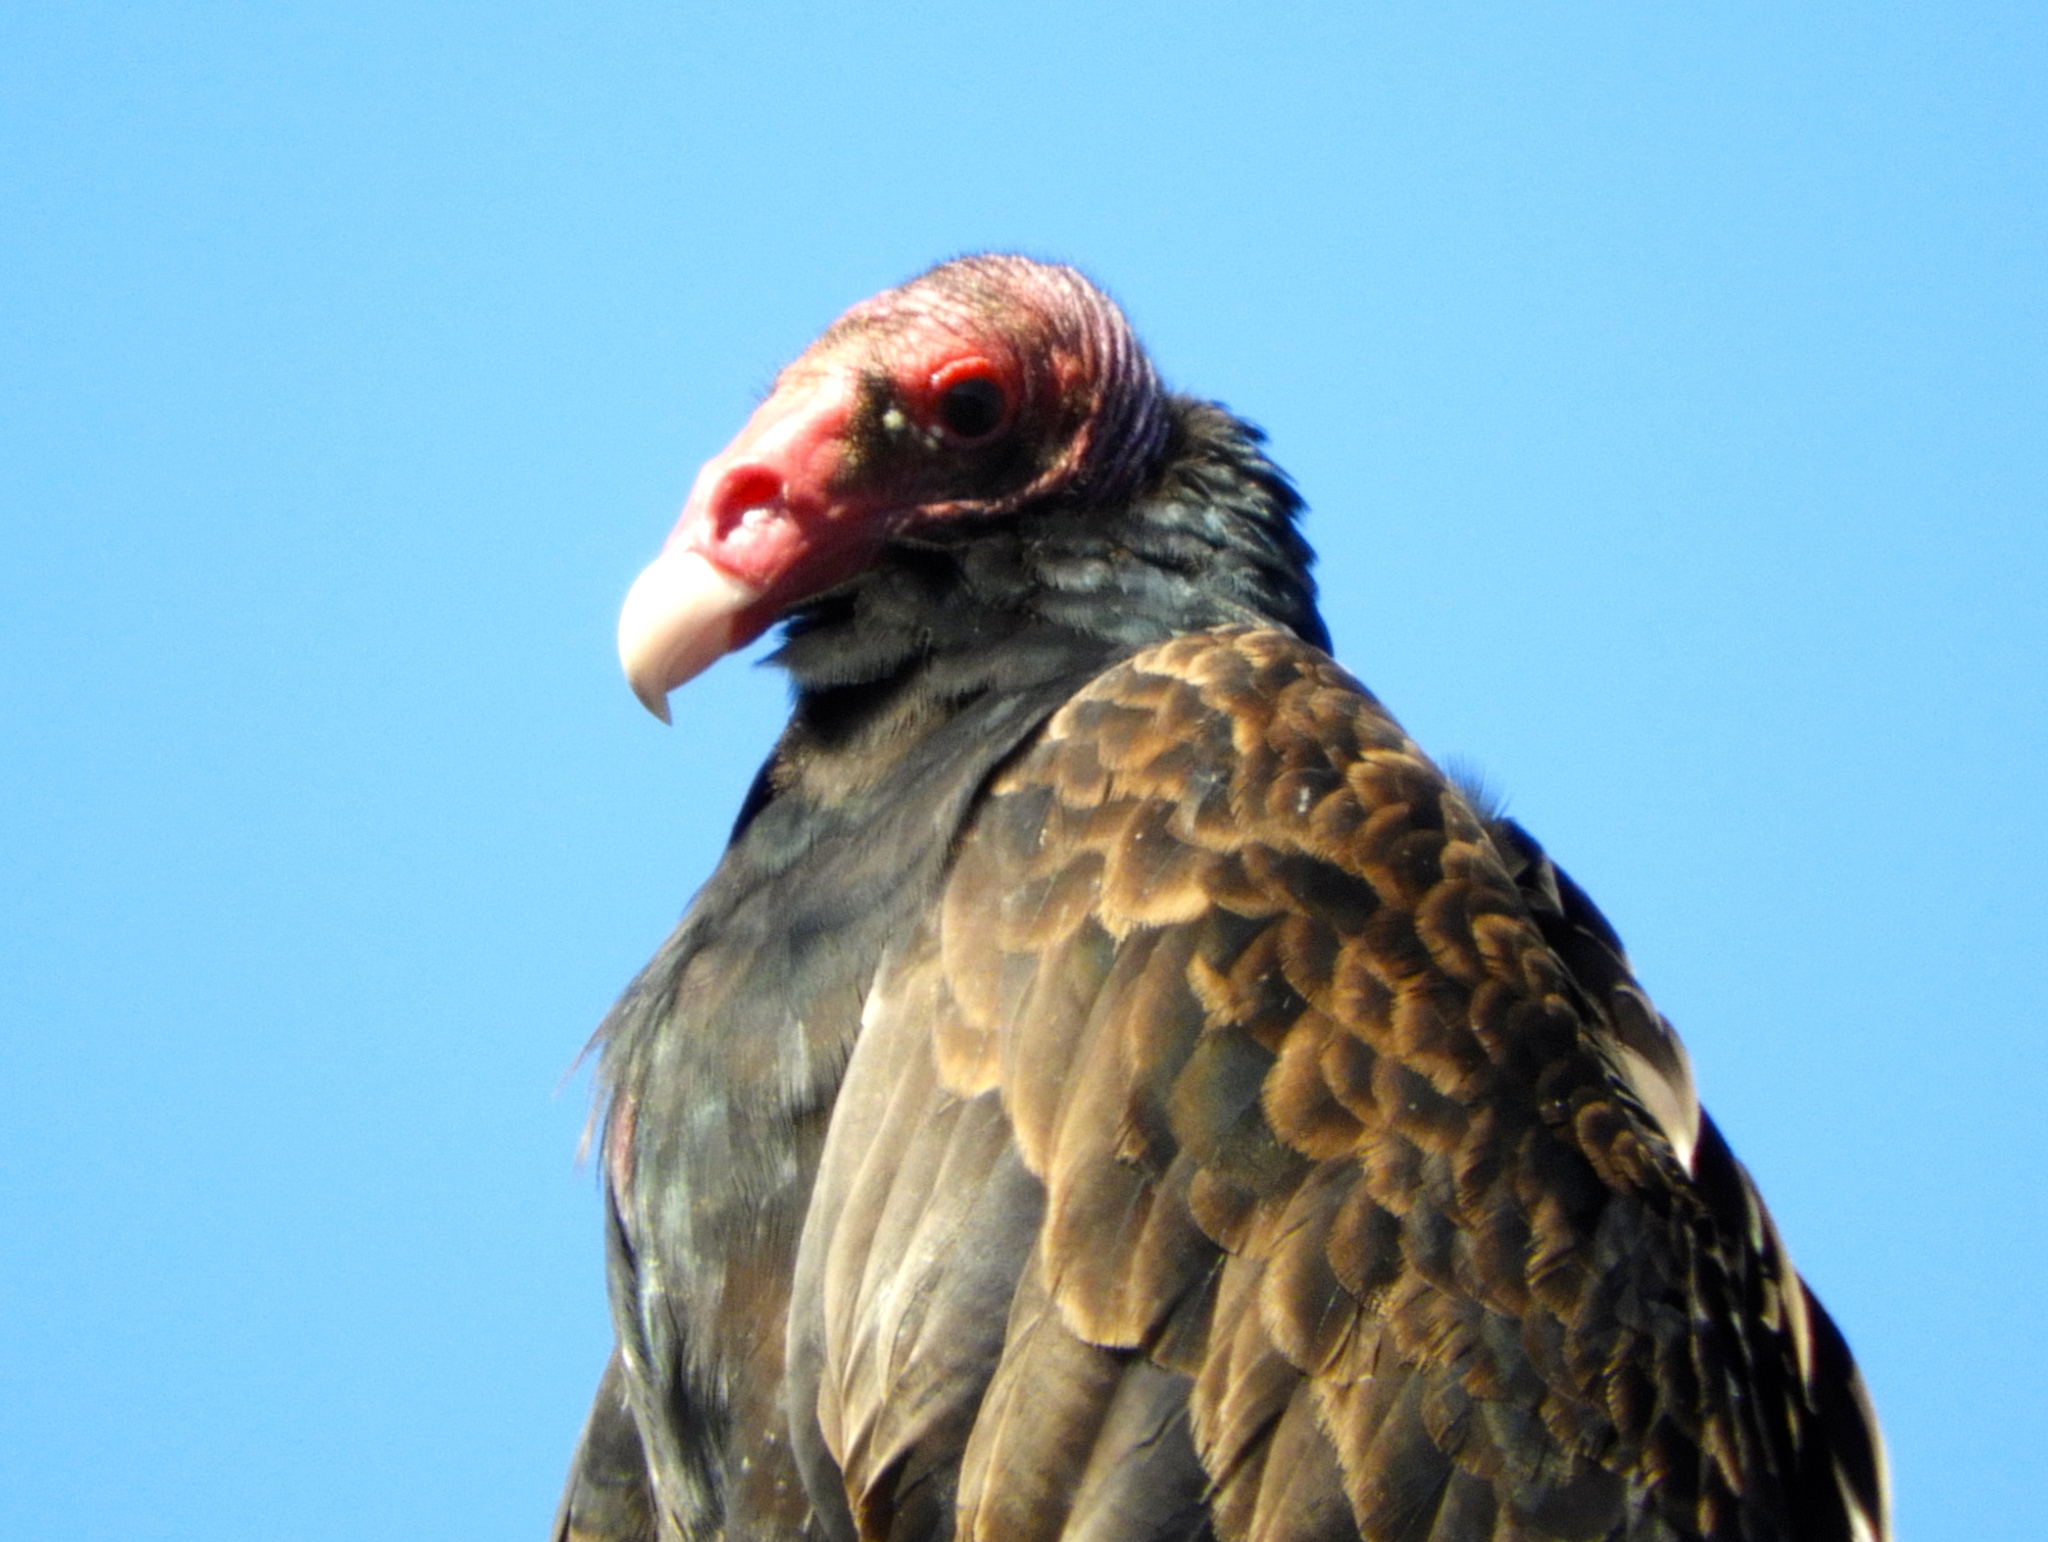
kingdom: Animalia
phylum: Chordata
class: Aves
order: Accipitriformes
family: Cathartidae
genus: Cathartes
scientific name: Cathartes aura
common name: Turkey vulture
